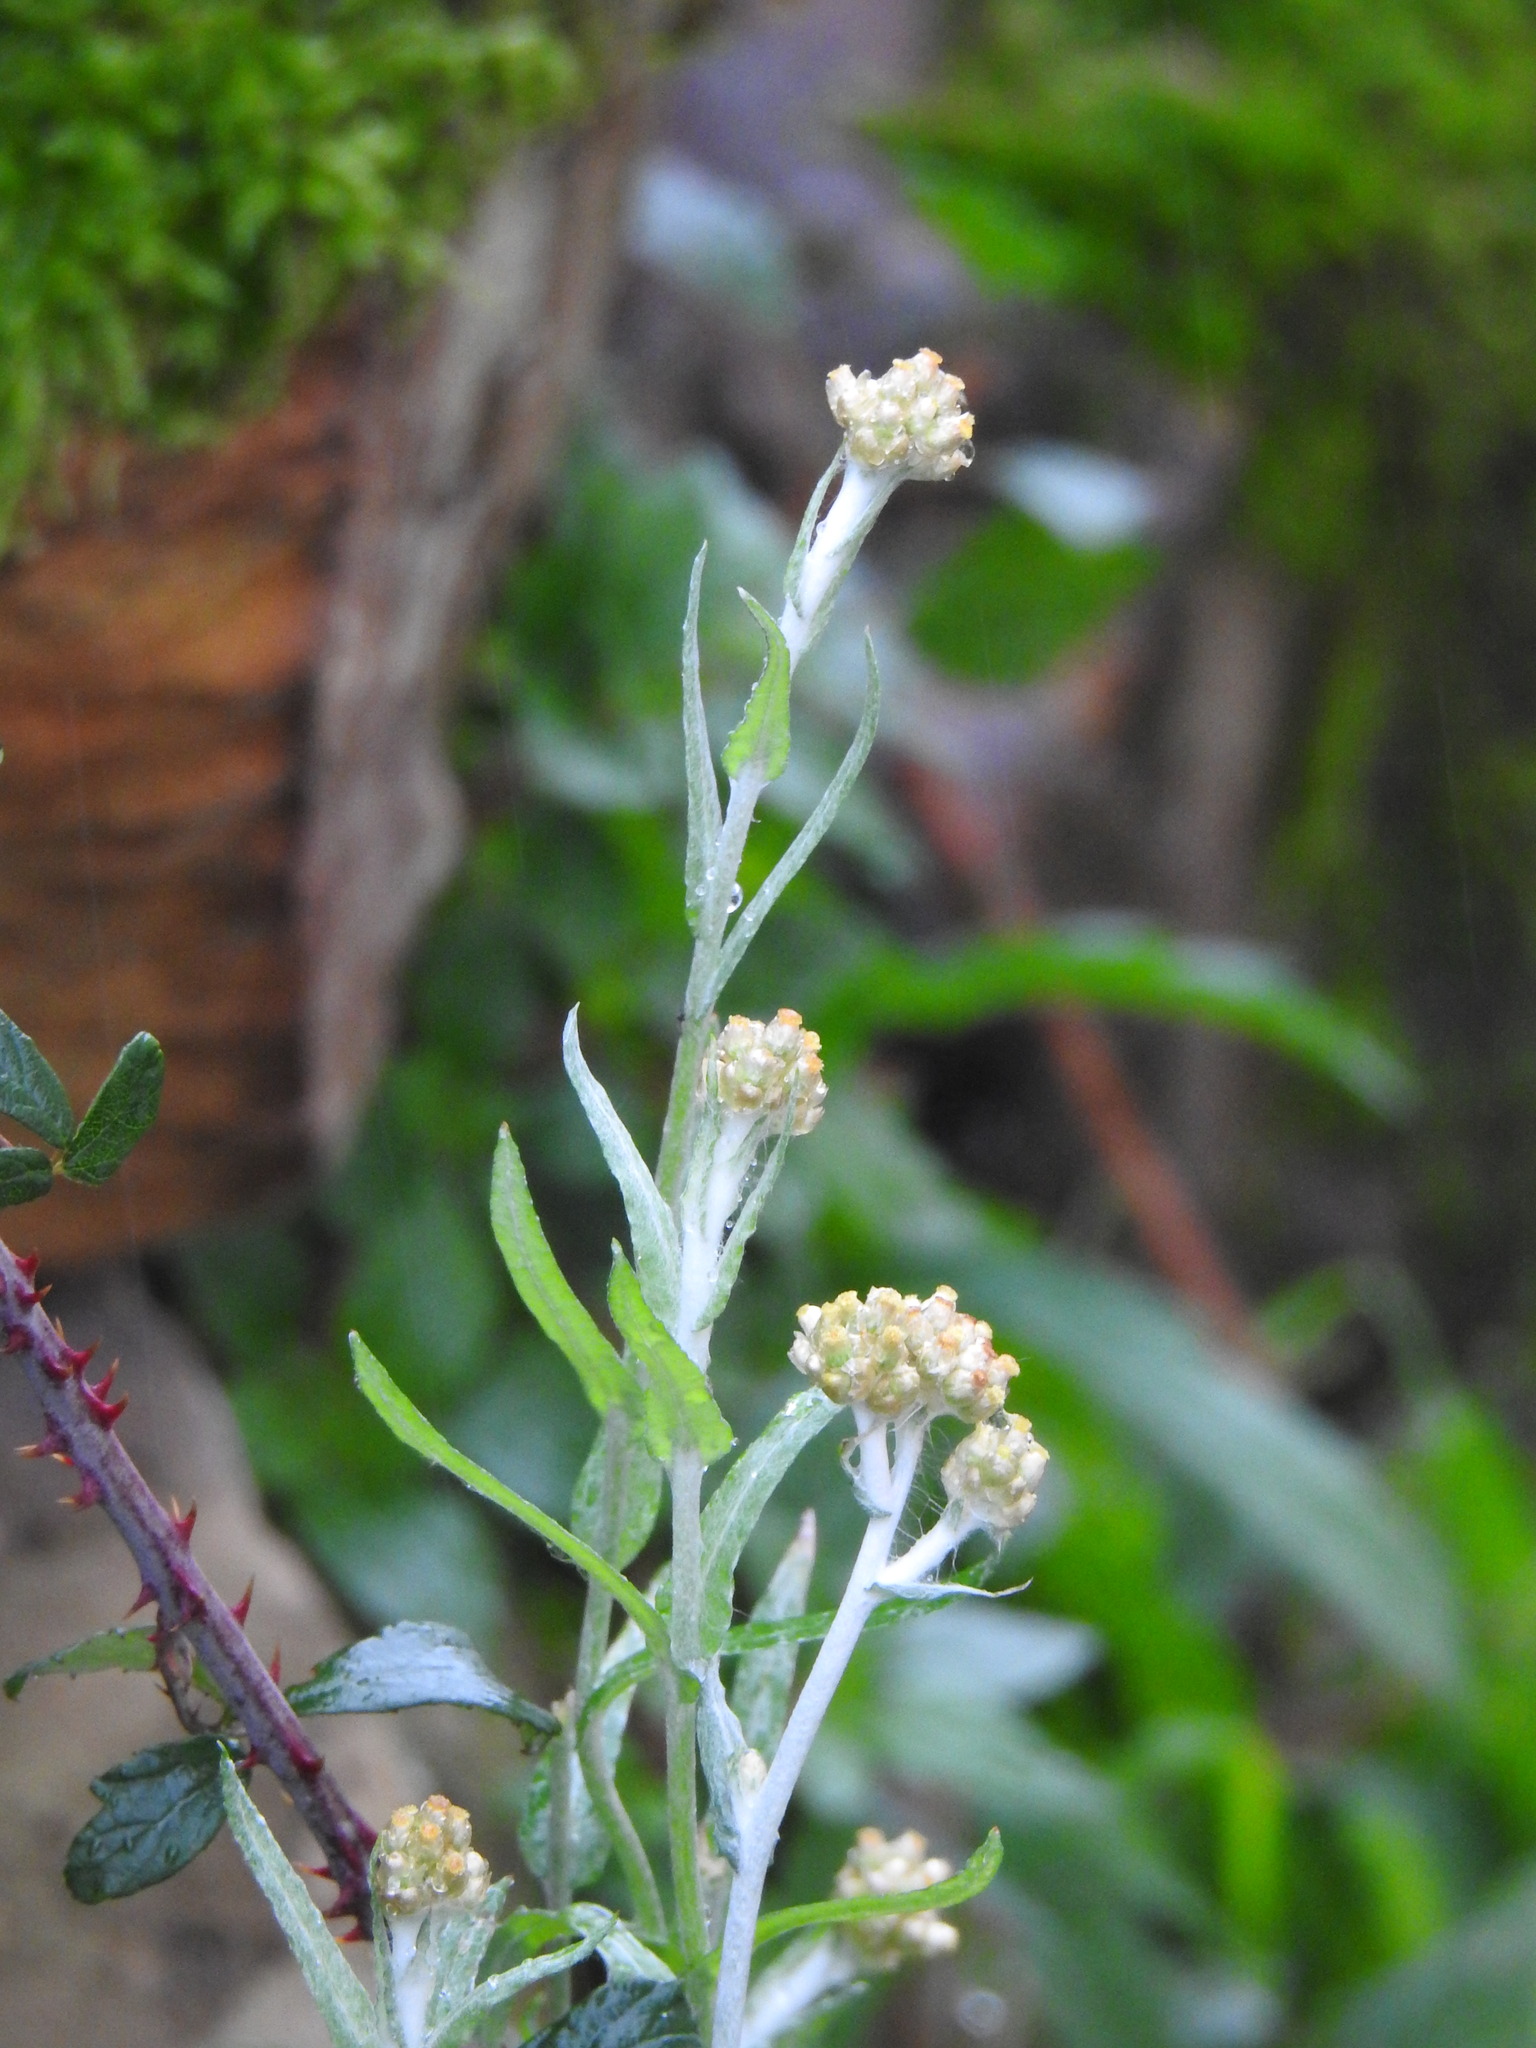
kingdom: Plantae
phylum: Tracheophyta
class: Magnoliopsida
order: Asterales
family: Asteraceae
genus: Helichrysum
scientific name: Helichrysum luteoalbum
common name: Daisy
